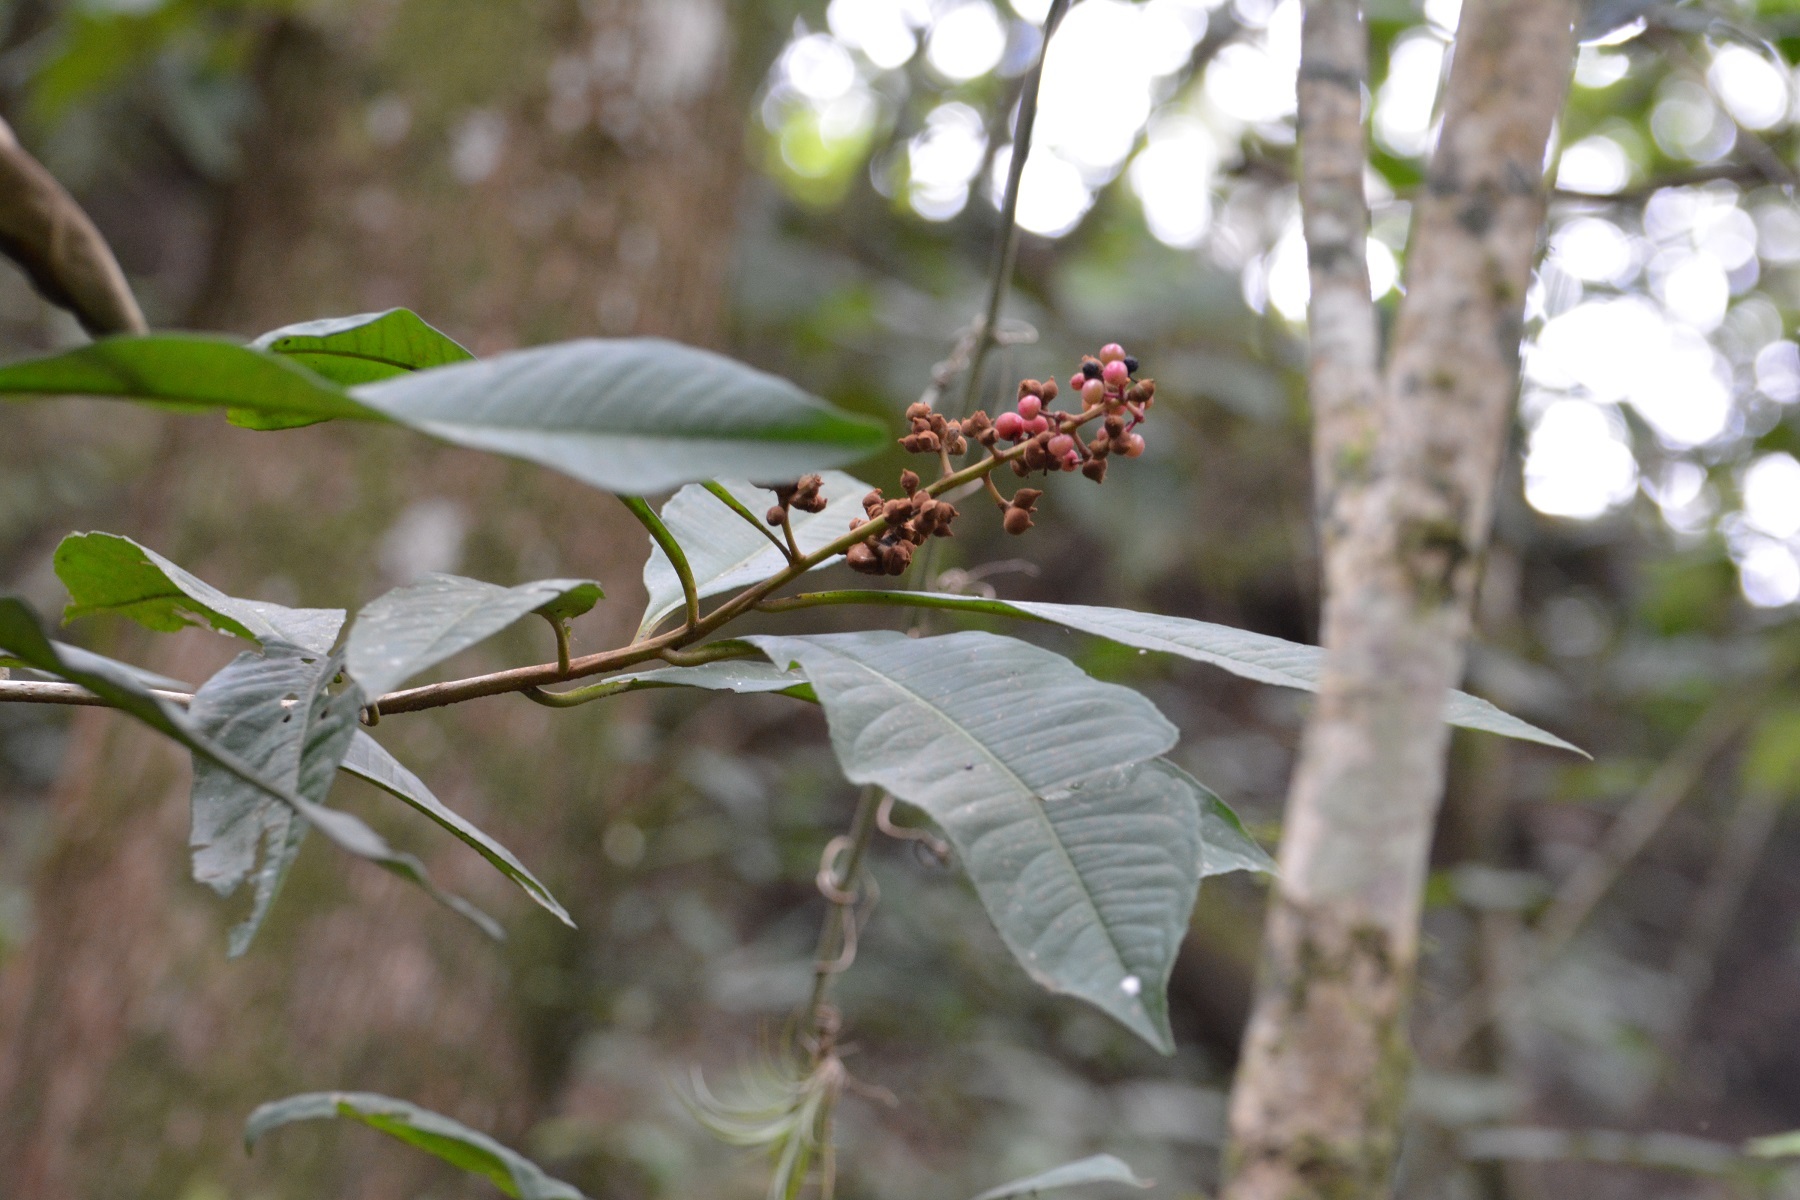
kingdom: Plantae
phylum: Tracheophyta
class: Magnoliopsida
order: Ericales
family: Primulaceae
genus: Parathesis
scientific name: Parathesis rufa
